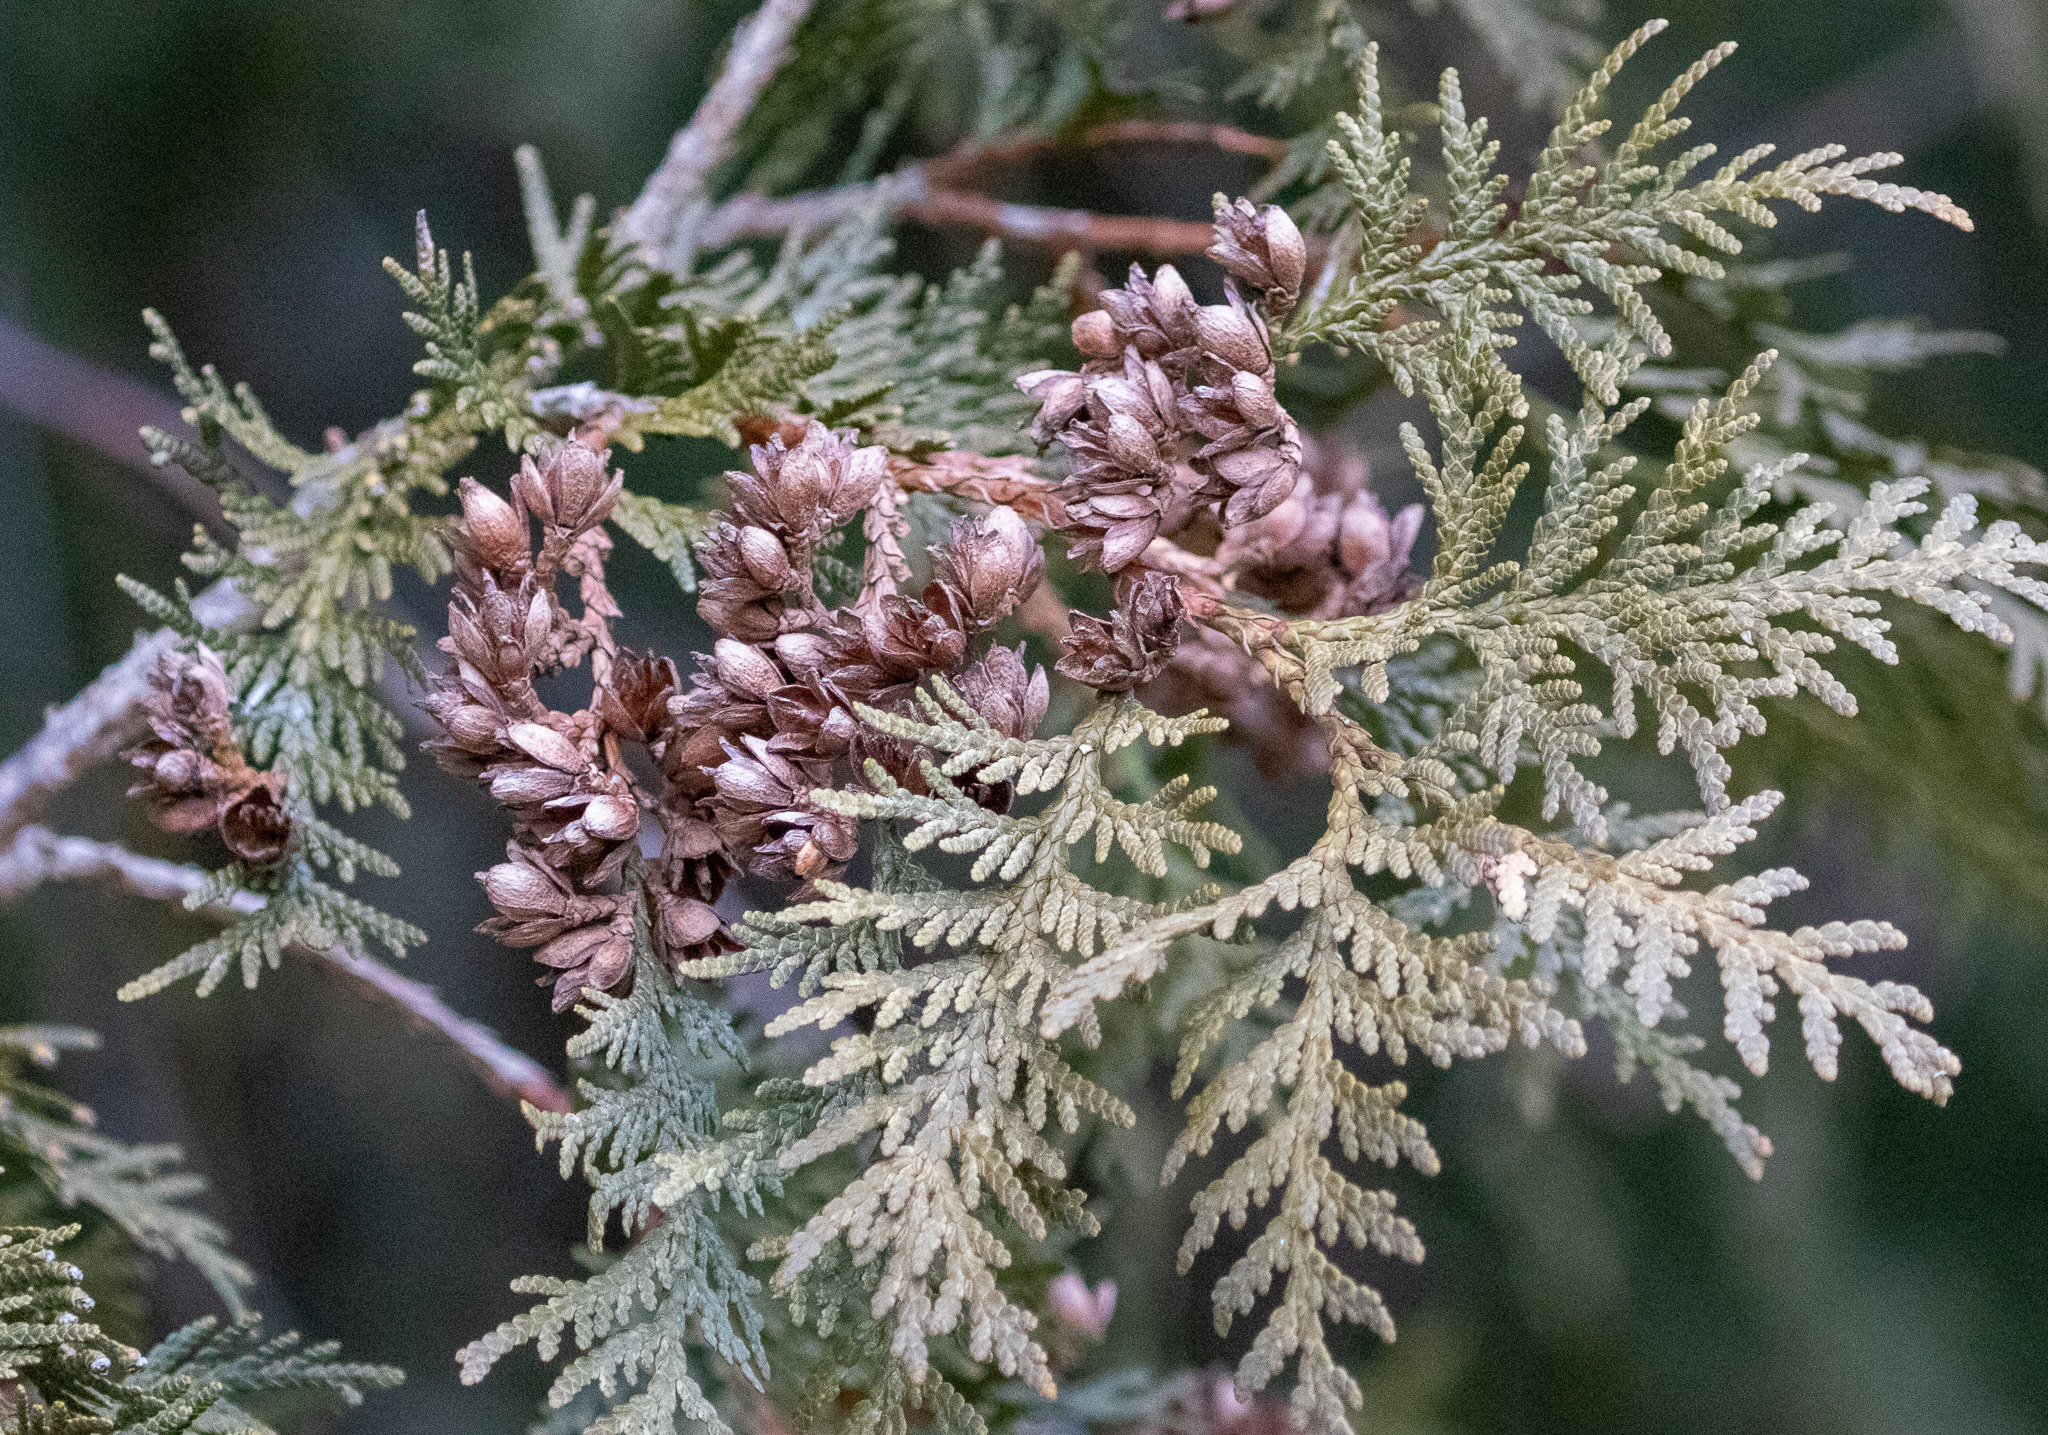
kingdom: Plantae
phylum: Tracheophyta
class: Pinopsida
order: Pinales
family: Cupressaceae
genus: Thuja
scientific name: Thuja occidentalis
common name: Northern white-cedar
